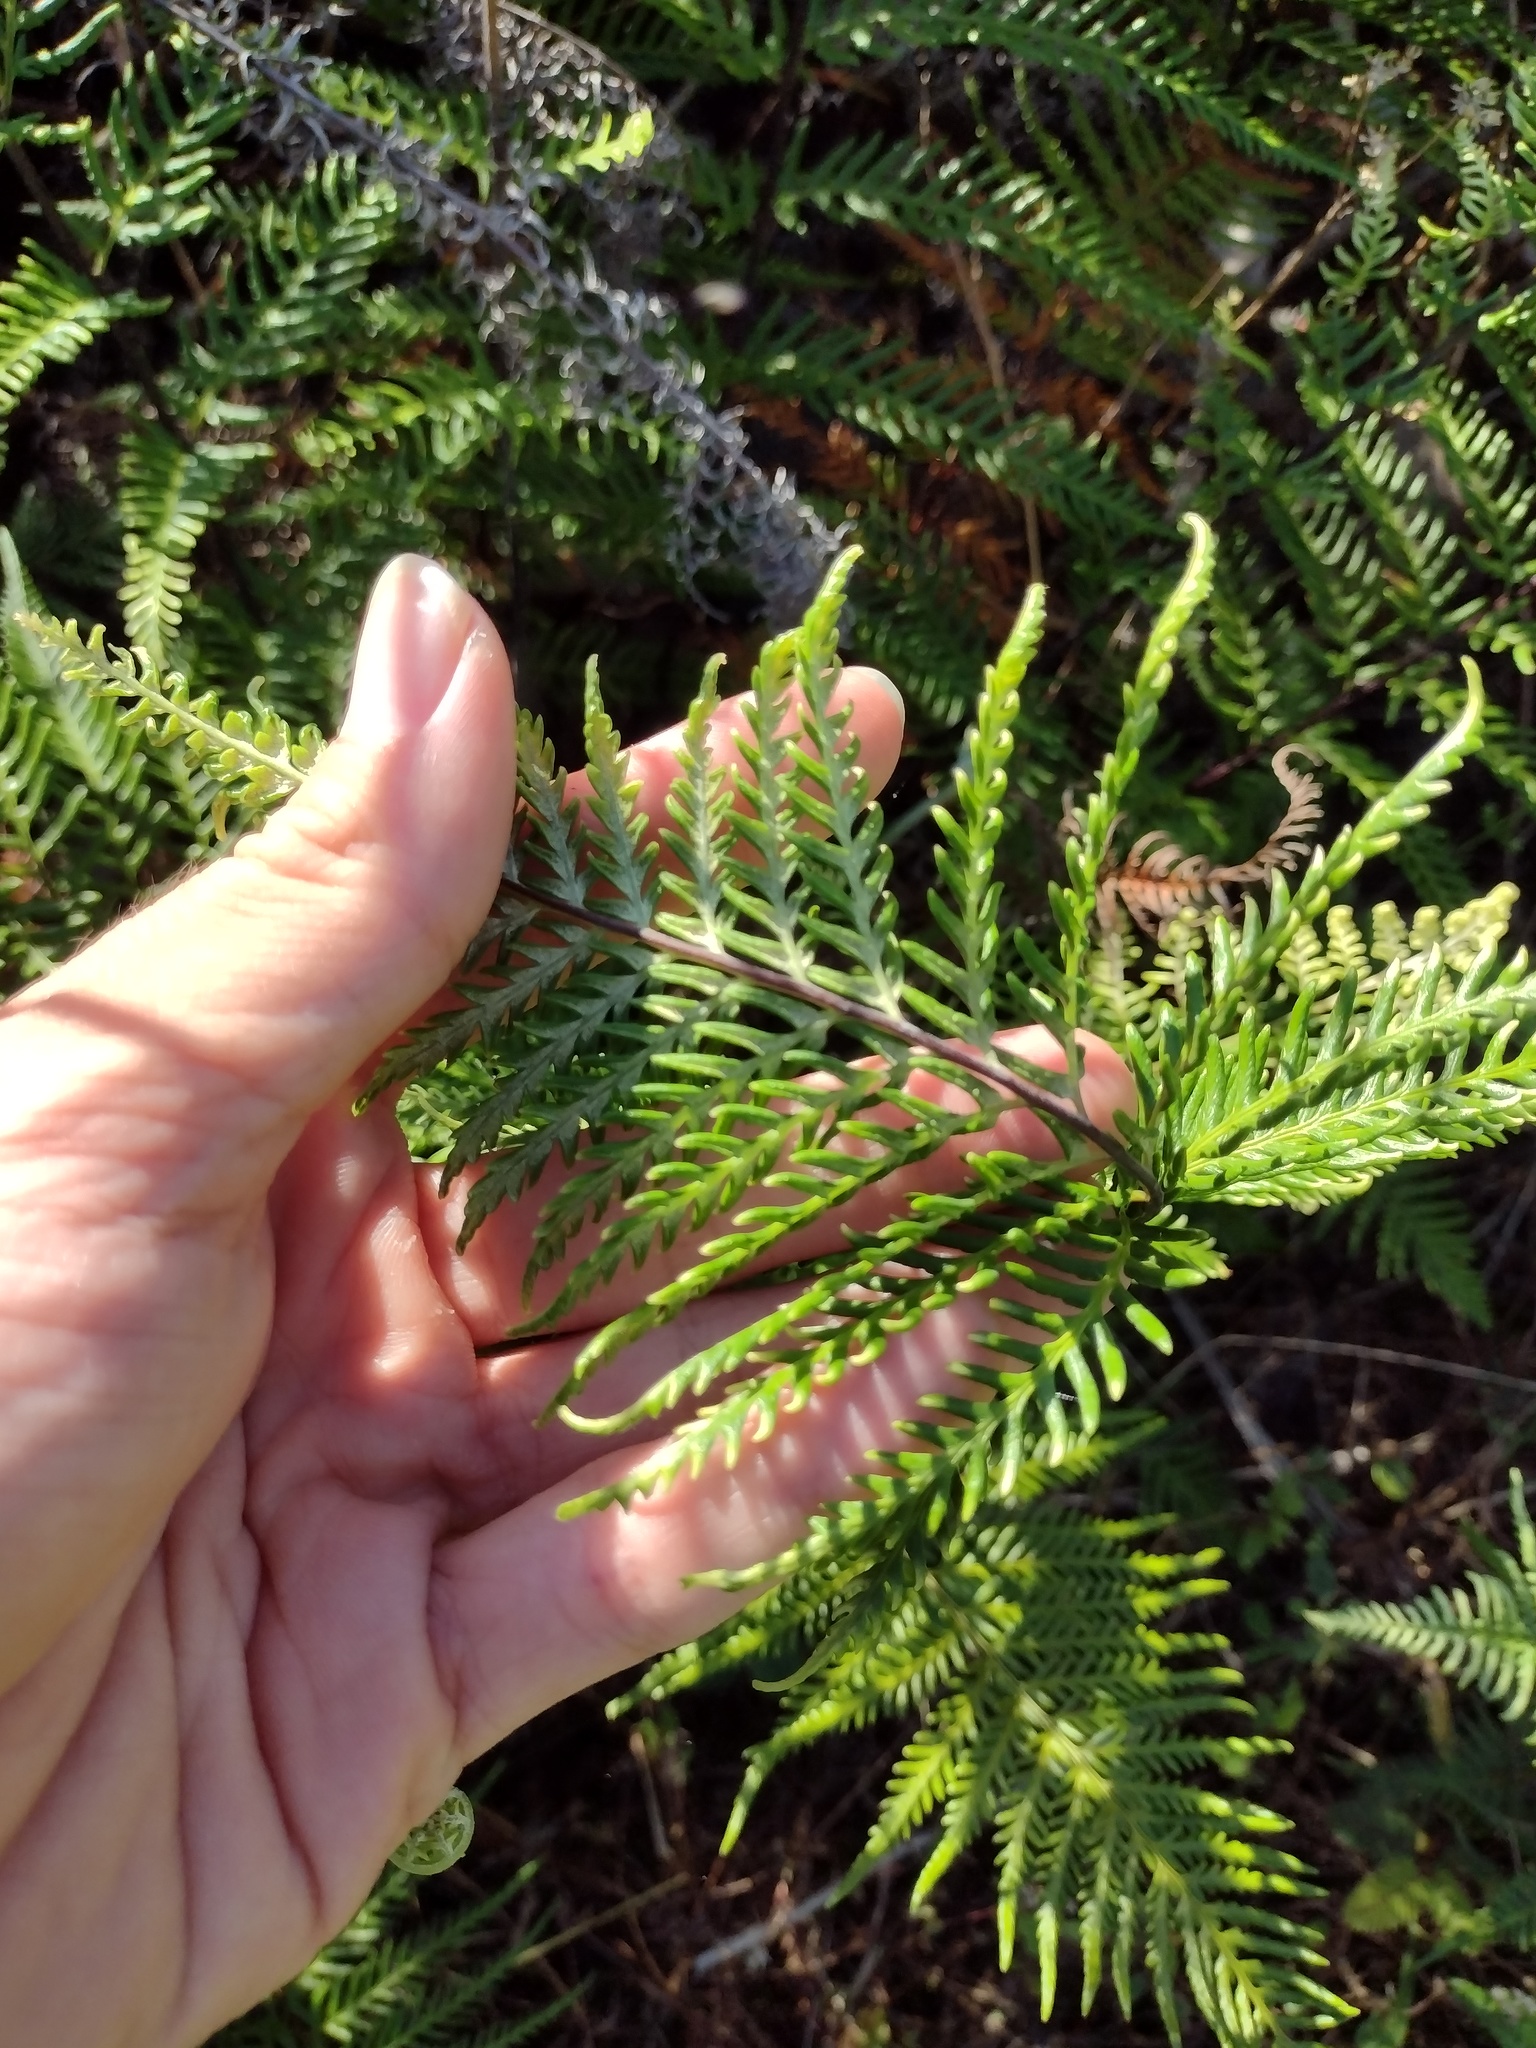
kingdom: Plantae
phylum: Tracheophyta
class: Polypodiopsida
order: Polypodiales
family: Pteridaceae
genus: Pityrogramma
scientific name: Pityrogramma calomelanos
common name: Dixie silverback fern
